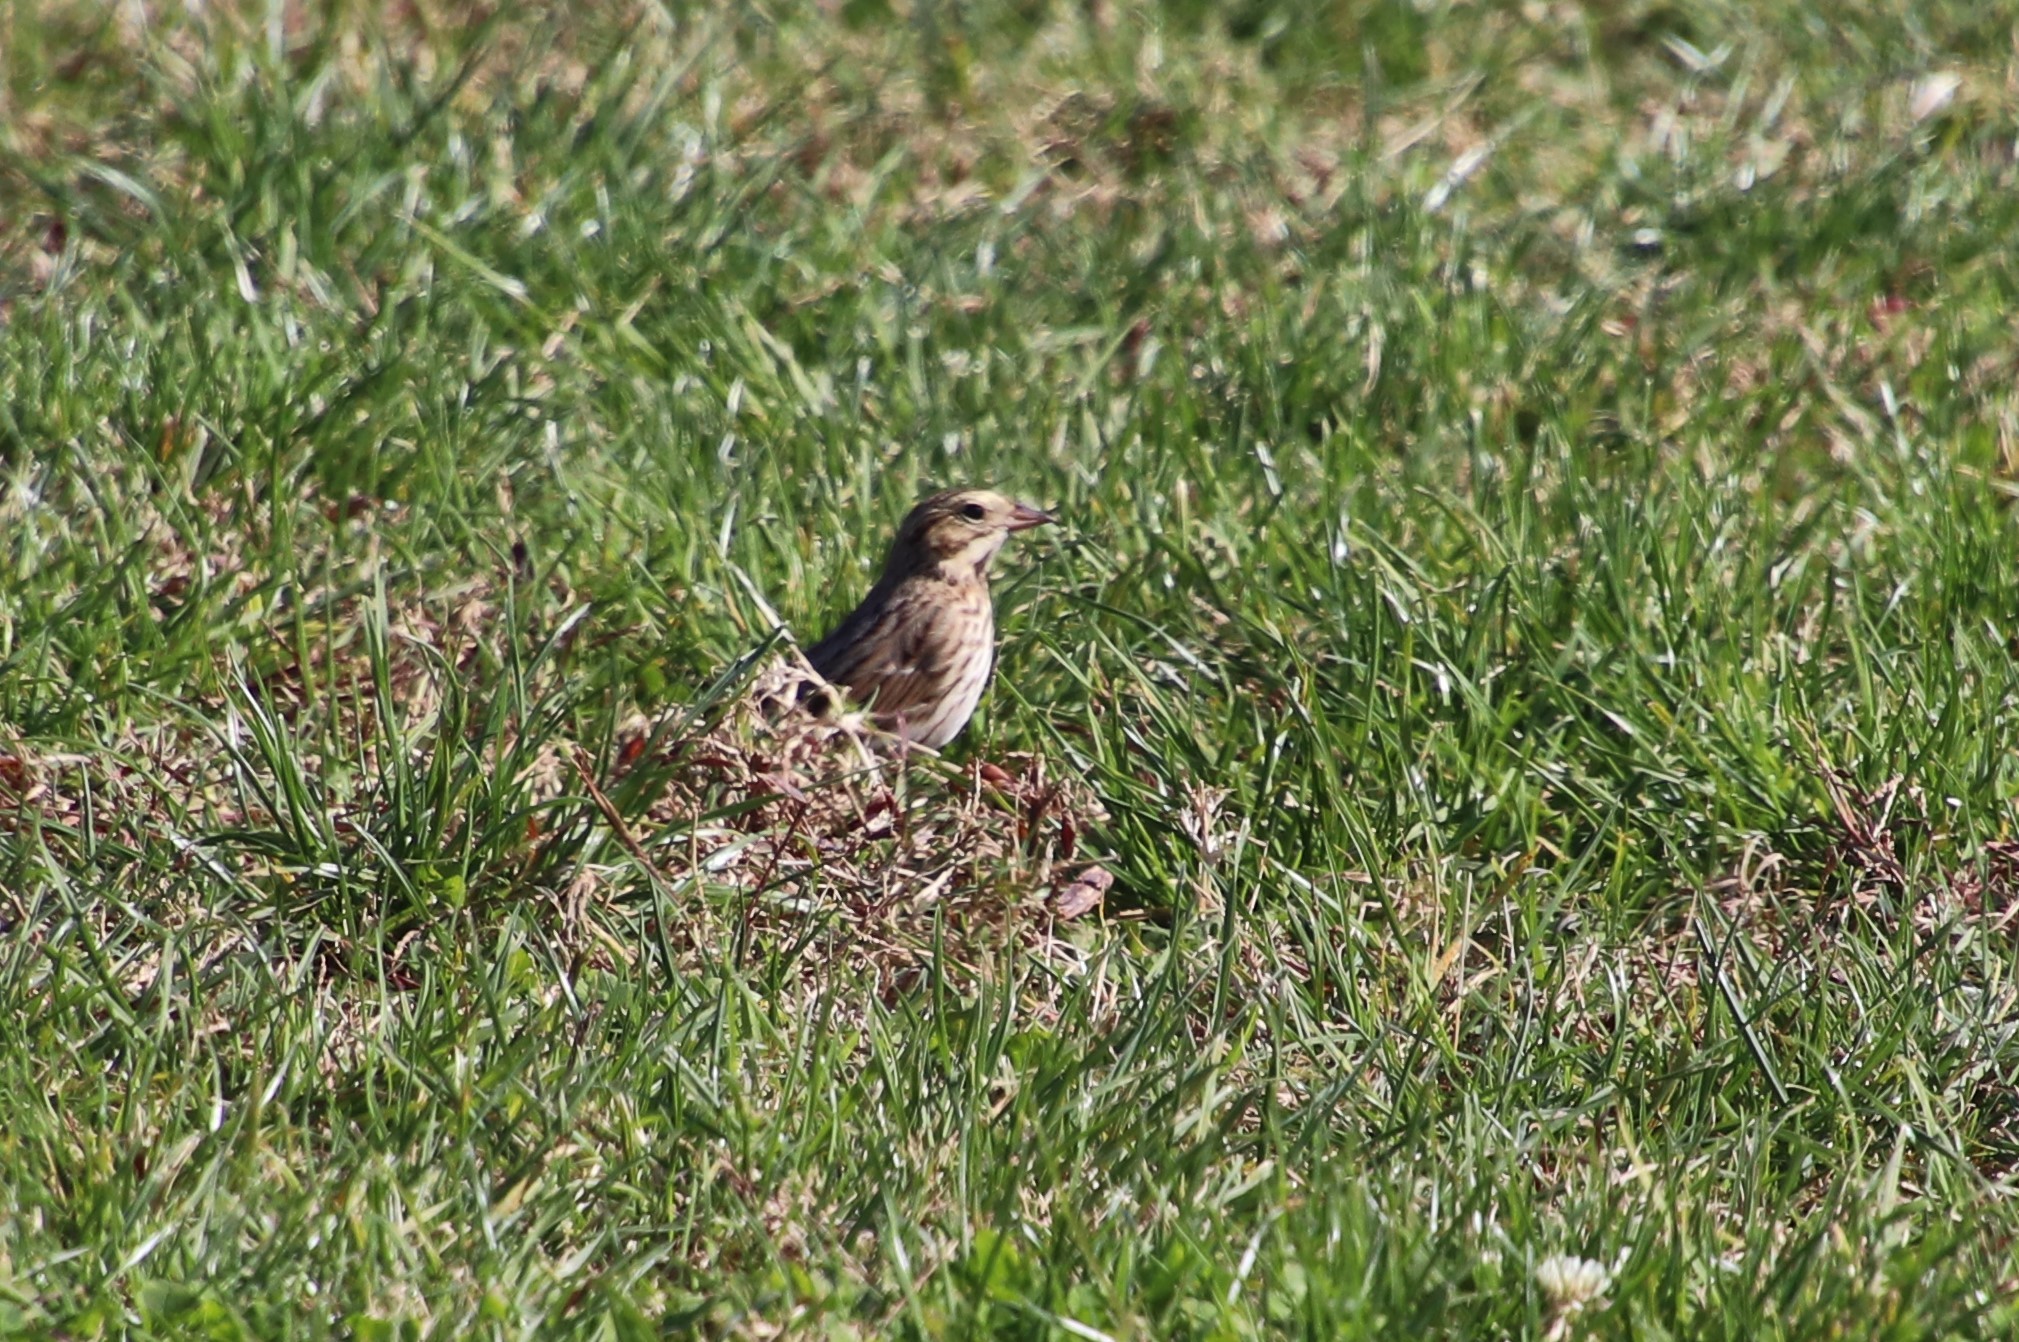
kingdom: Animalia
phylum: Chordata
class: Aves
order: Passeriformes
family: Passerellidae
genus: Passerculus
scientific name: Passerculus sandwichensis
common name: Savannah sparrow
